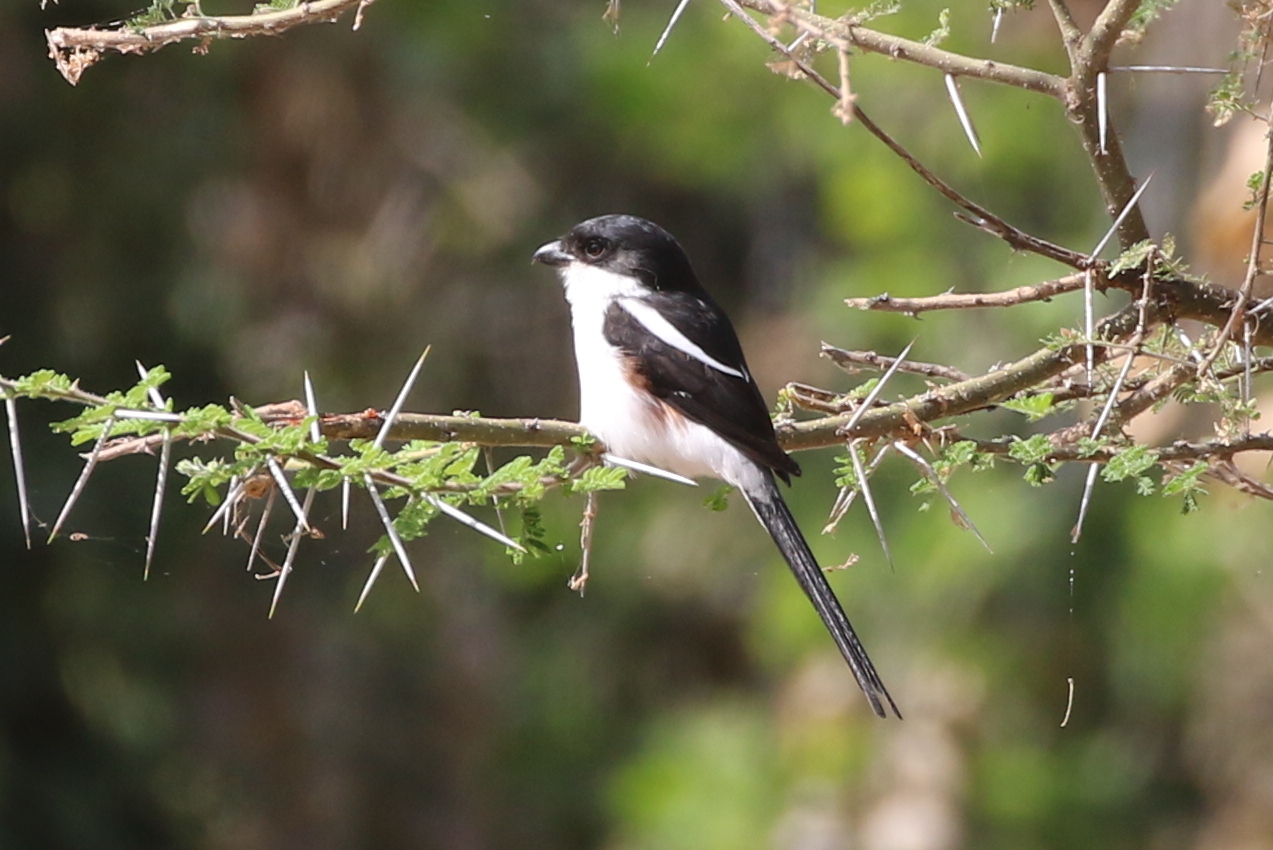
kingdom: Animalia
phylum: Chordata
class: Aves
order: Passeriformes
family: Laniidae
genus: Lanius
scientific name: Lanius humeralis
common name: Northern fiscal
